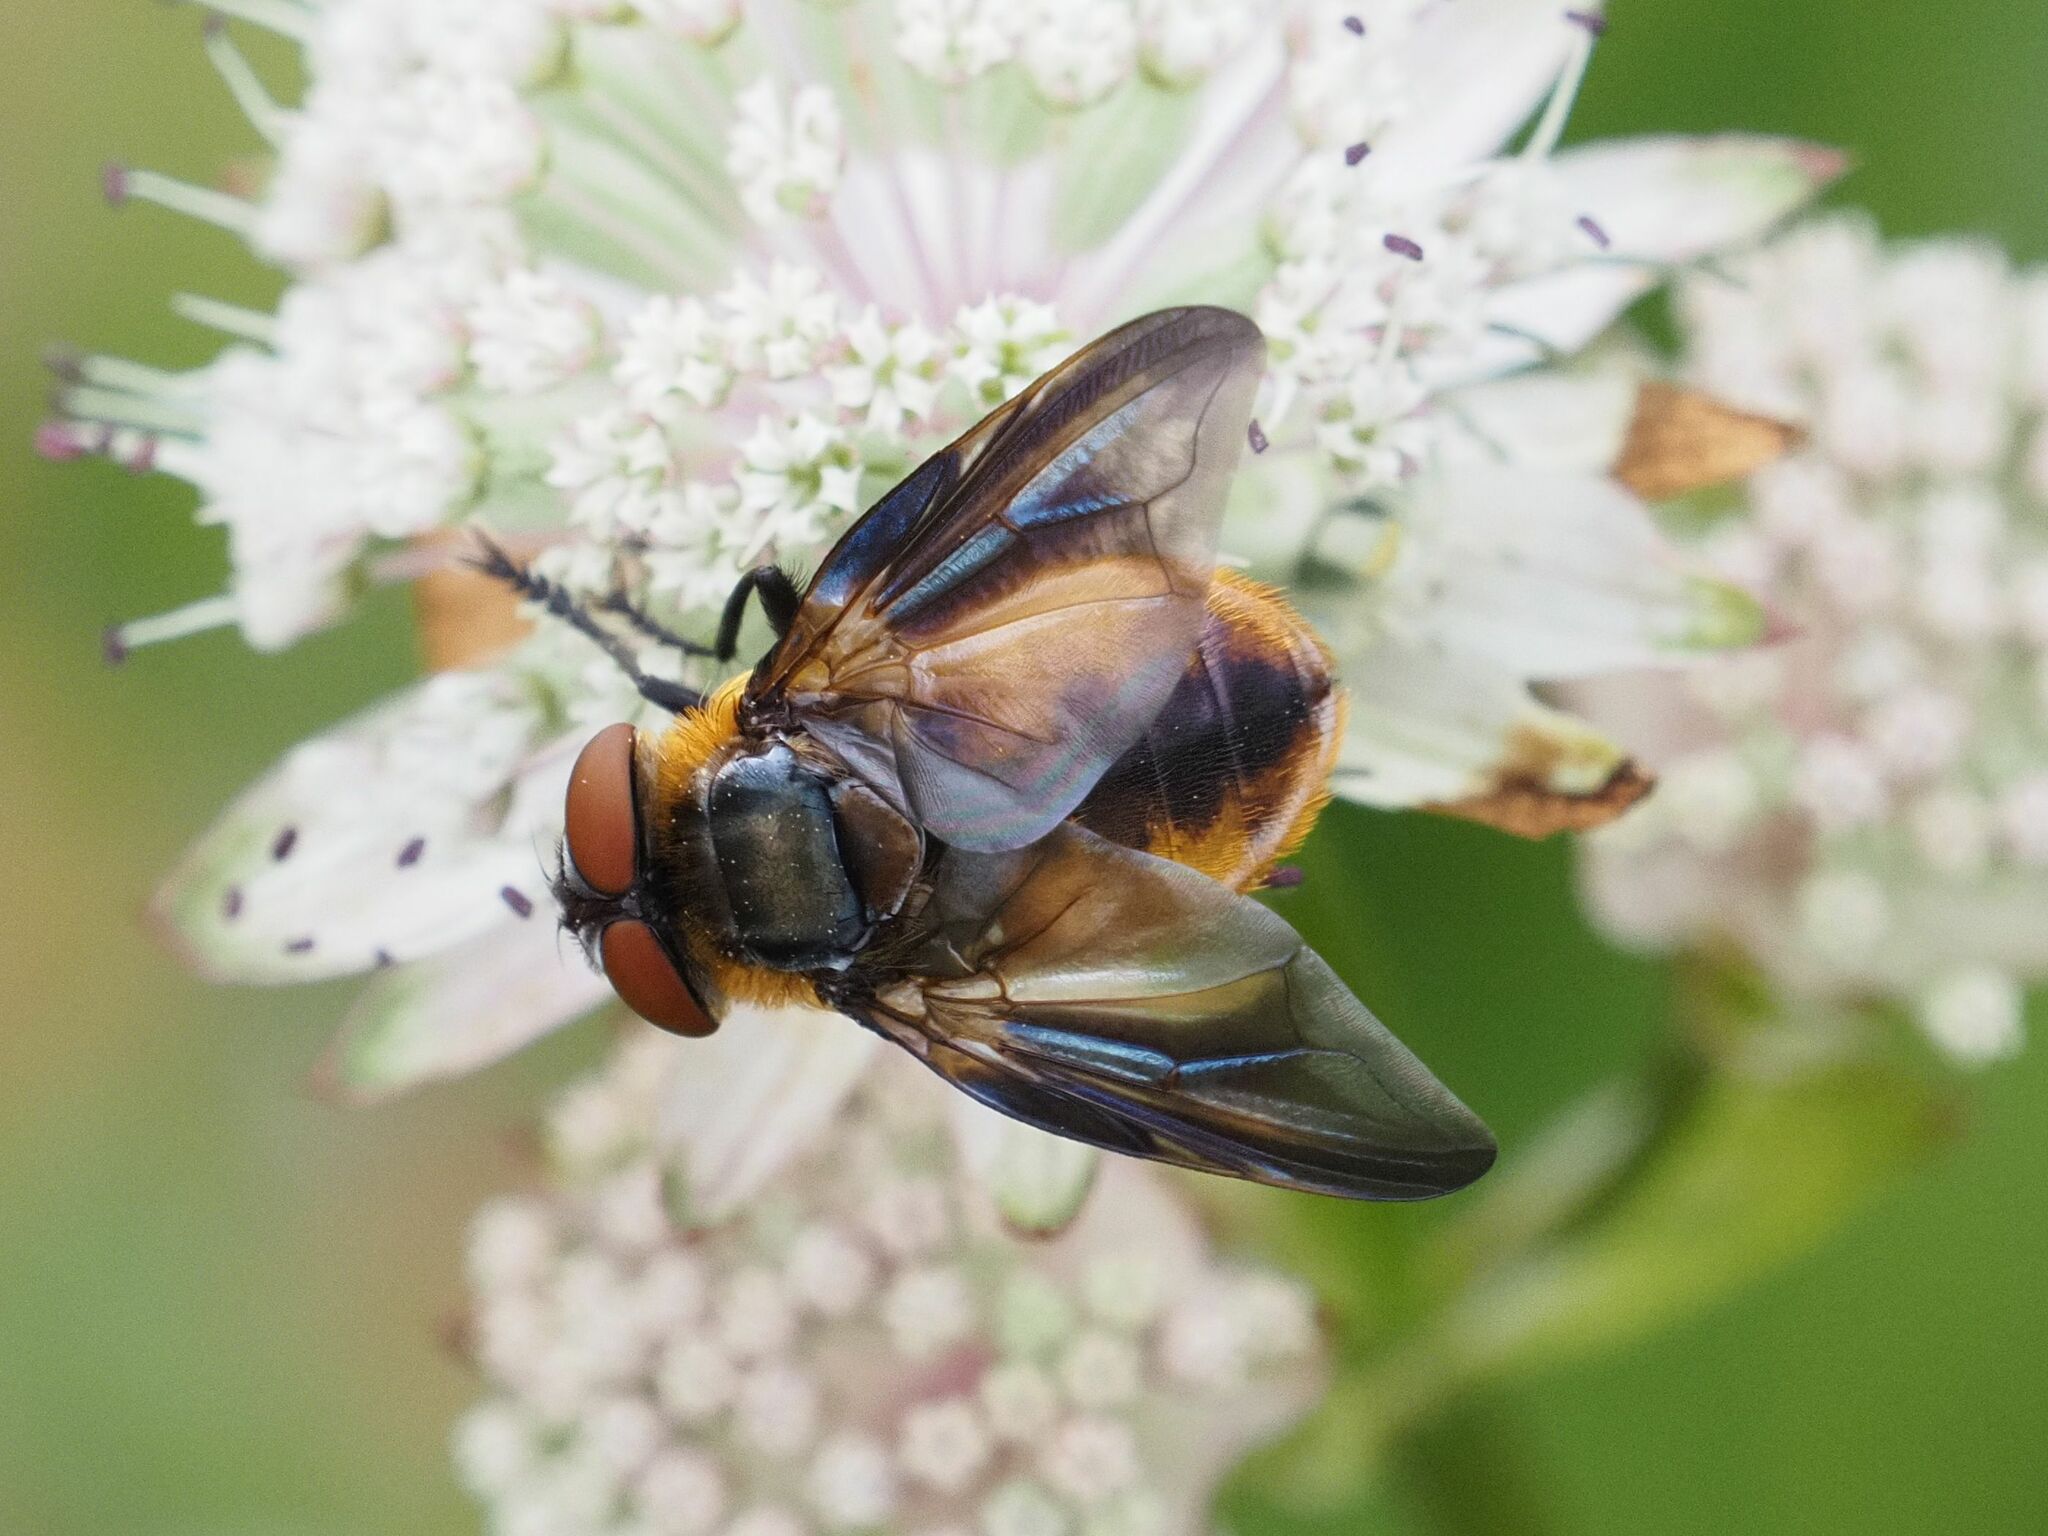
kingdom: Animalia
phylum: Arthropoda
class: Insecta
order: Diptera
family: Tachinidae
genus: Phasia
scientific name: Phasia hemiptera
